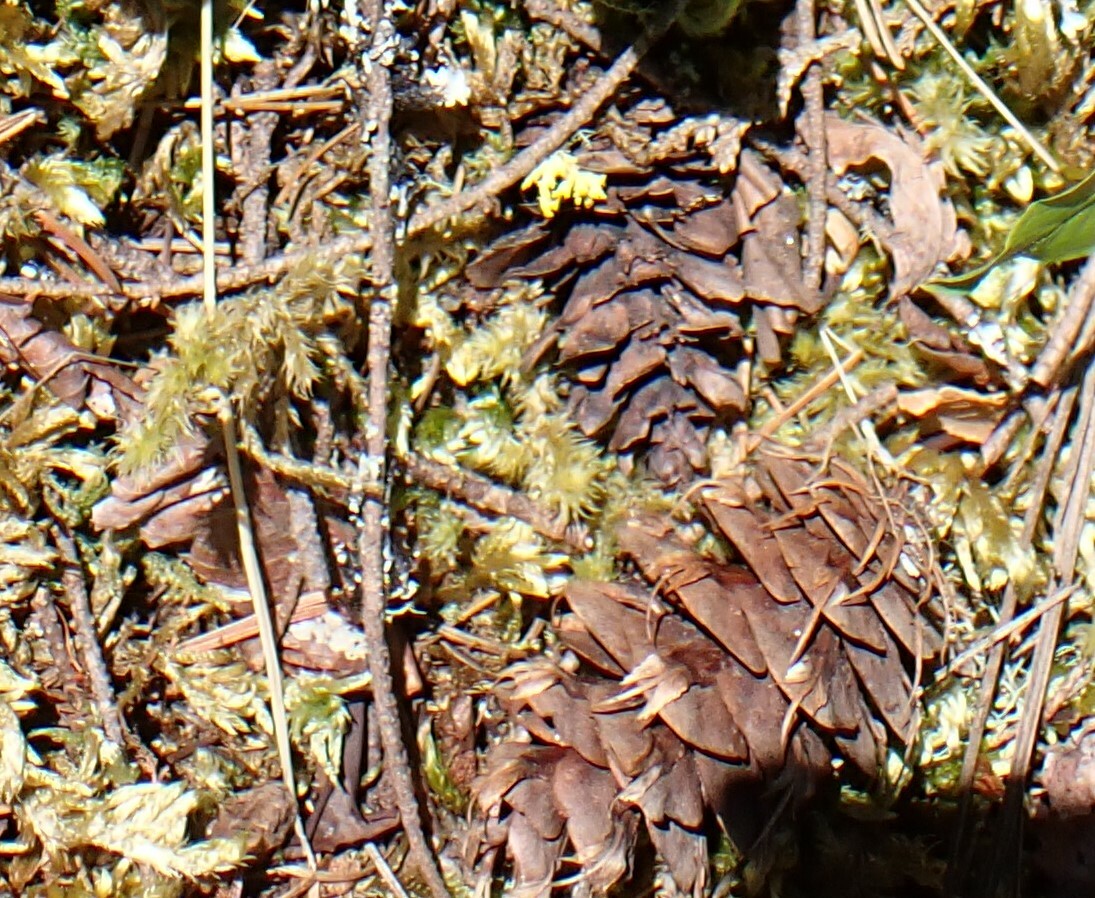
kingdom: Plantae
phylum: Tracheophyta
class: Pinopsida
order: Pinales
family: Pinaceae
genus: Pseudotsuga
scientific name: Pseudotsuga menziesii
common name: Douglas fir
